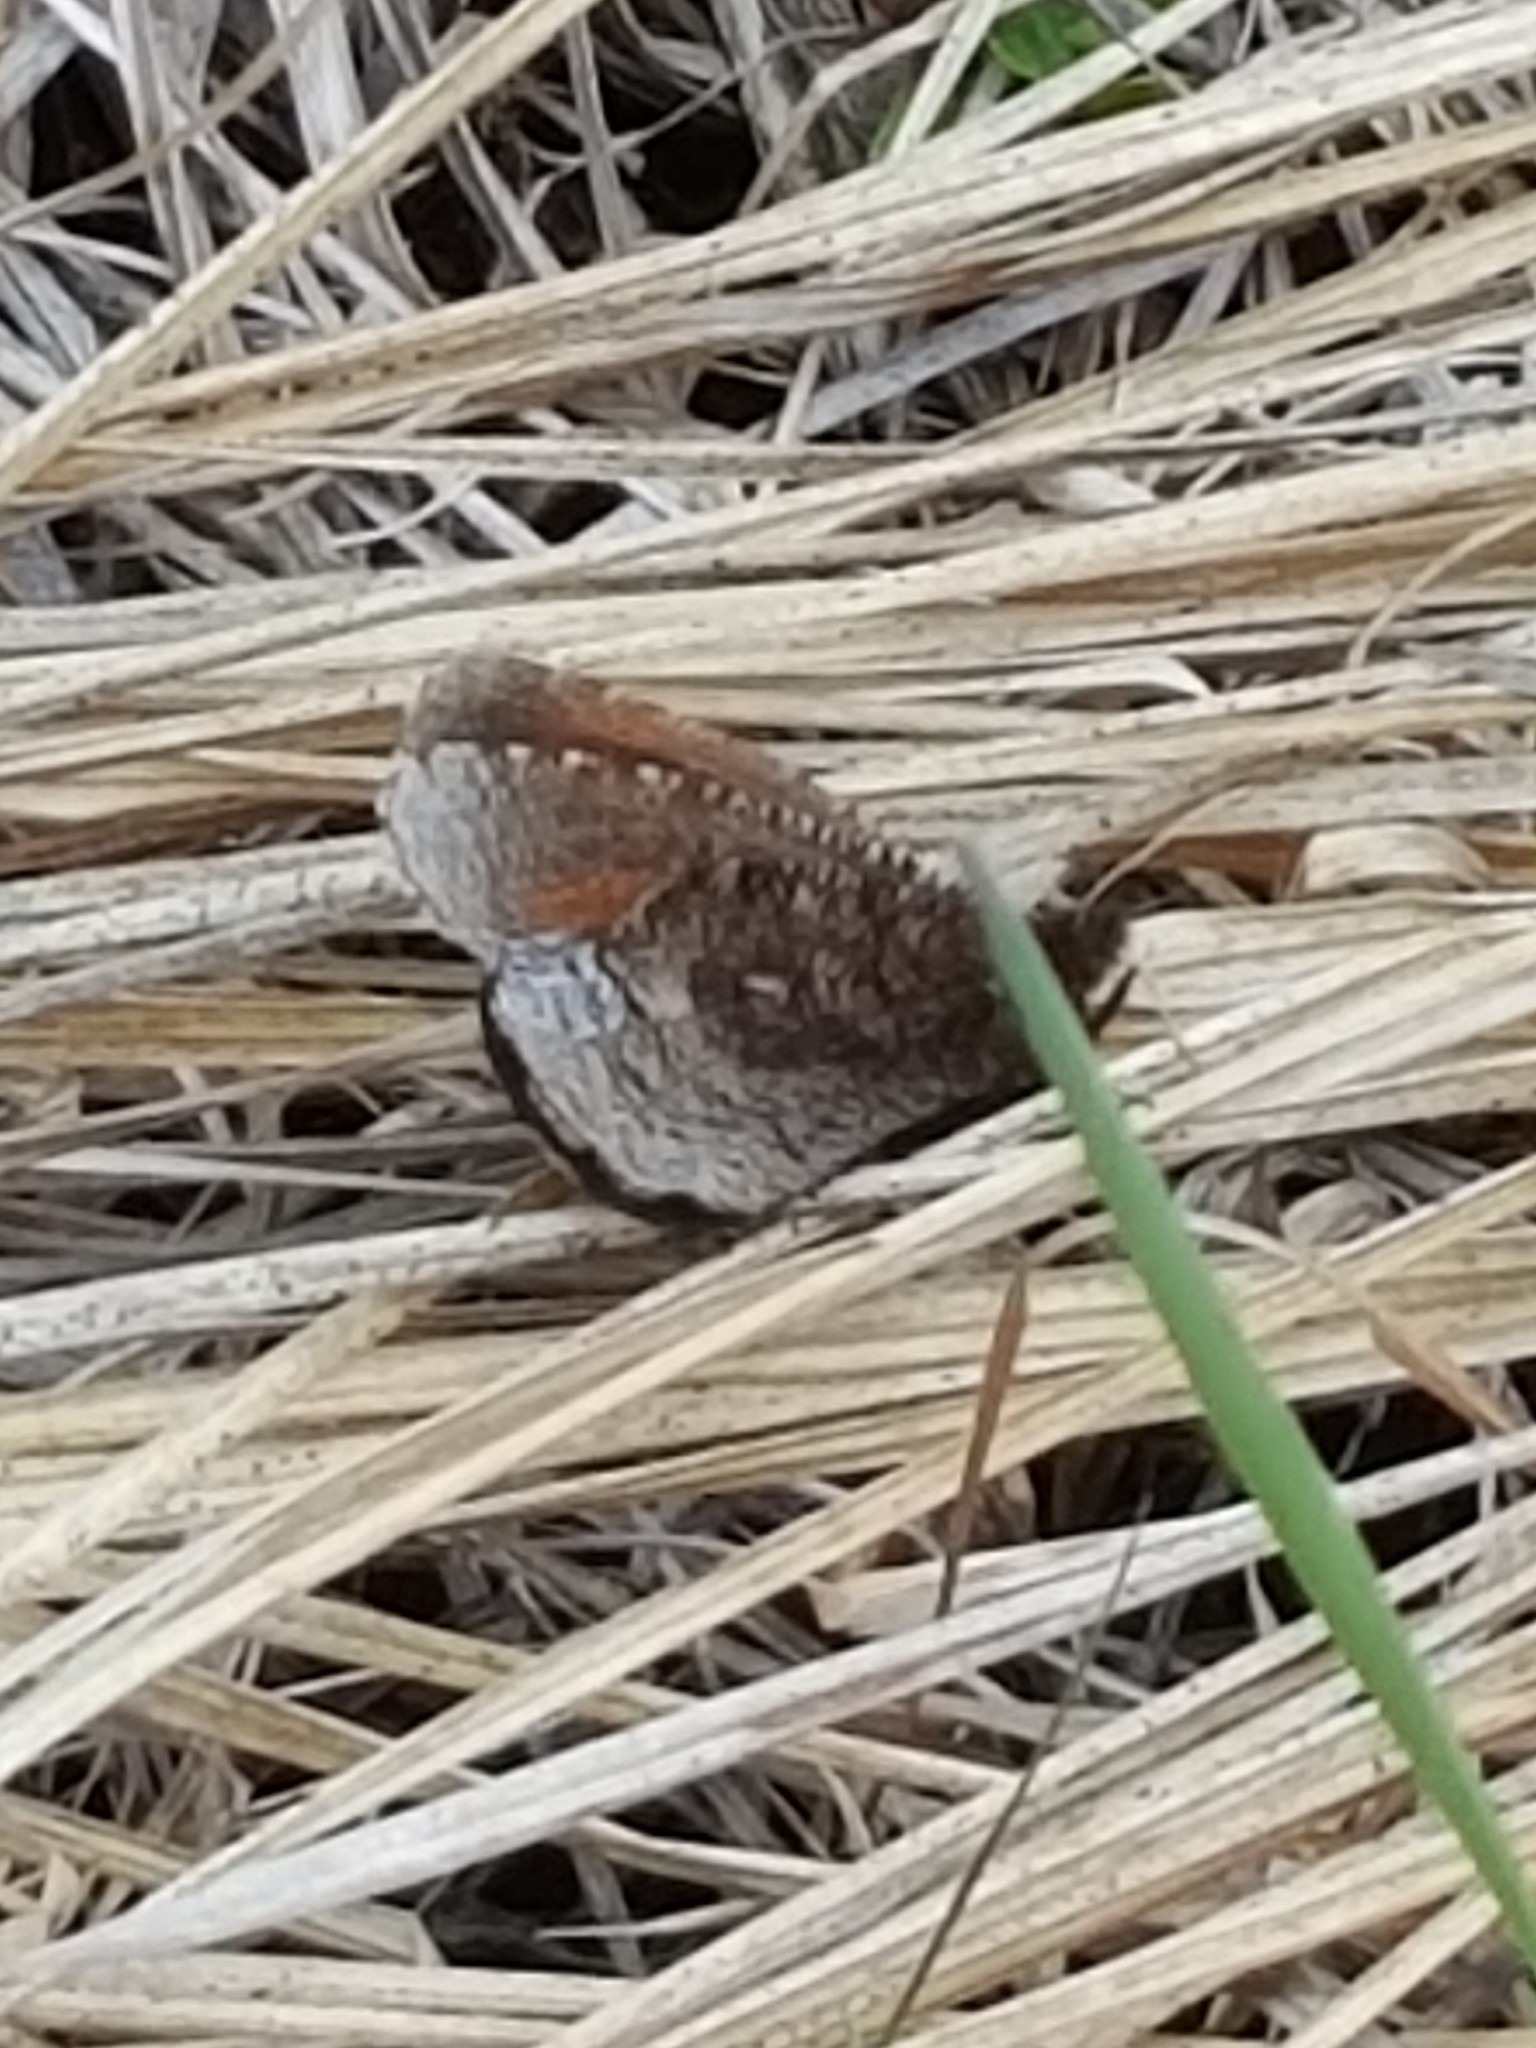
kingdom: Animalia
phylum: Arthropoda
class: Insecta
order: Lepidoptera
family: Nymphalidae
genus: Erebia
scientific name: Erebia discoidalis
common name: Red-disked alpine
